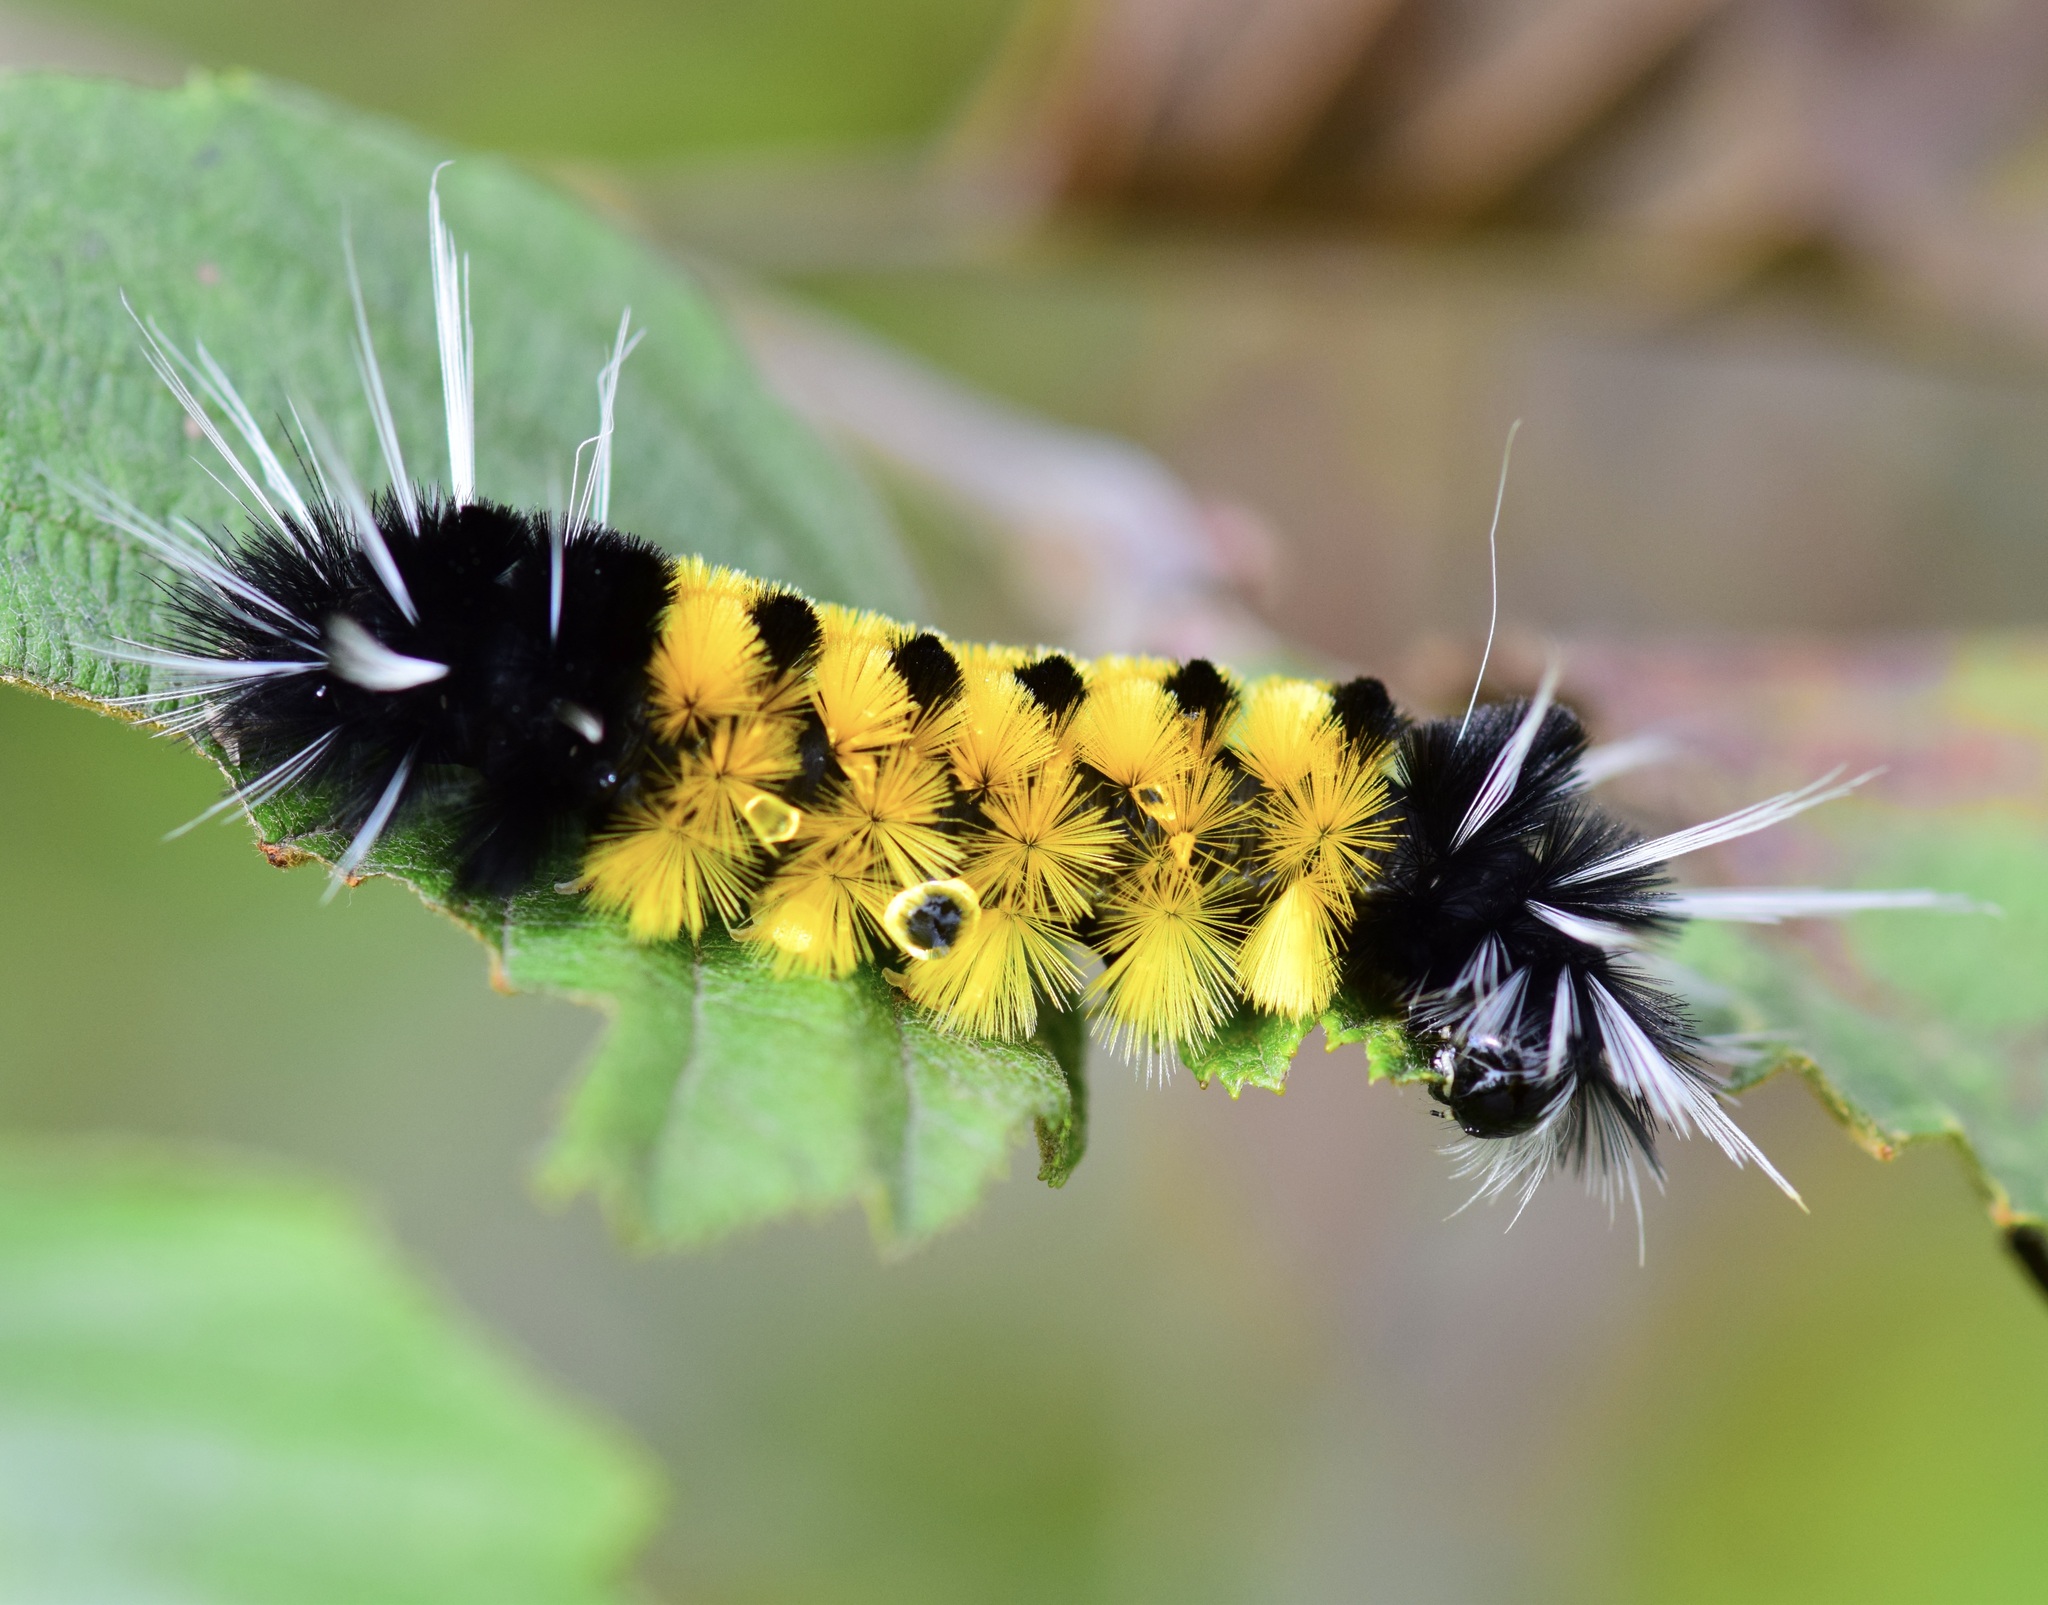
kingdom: Animalia
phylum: Arthropoda
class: Insecta
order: Lepidoptera
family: Erebidae
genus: Lophocampa
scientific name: Lophocampa maculata
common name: Spotted tussock moth
